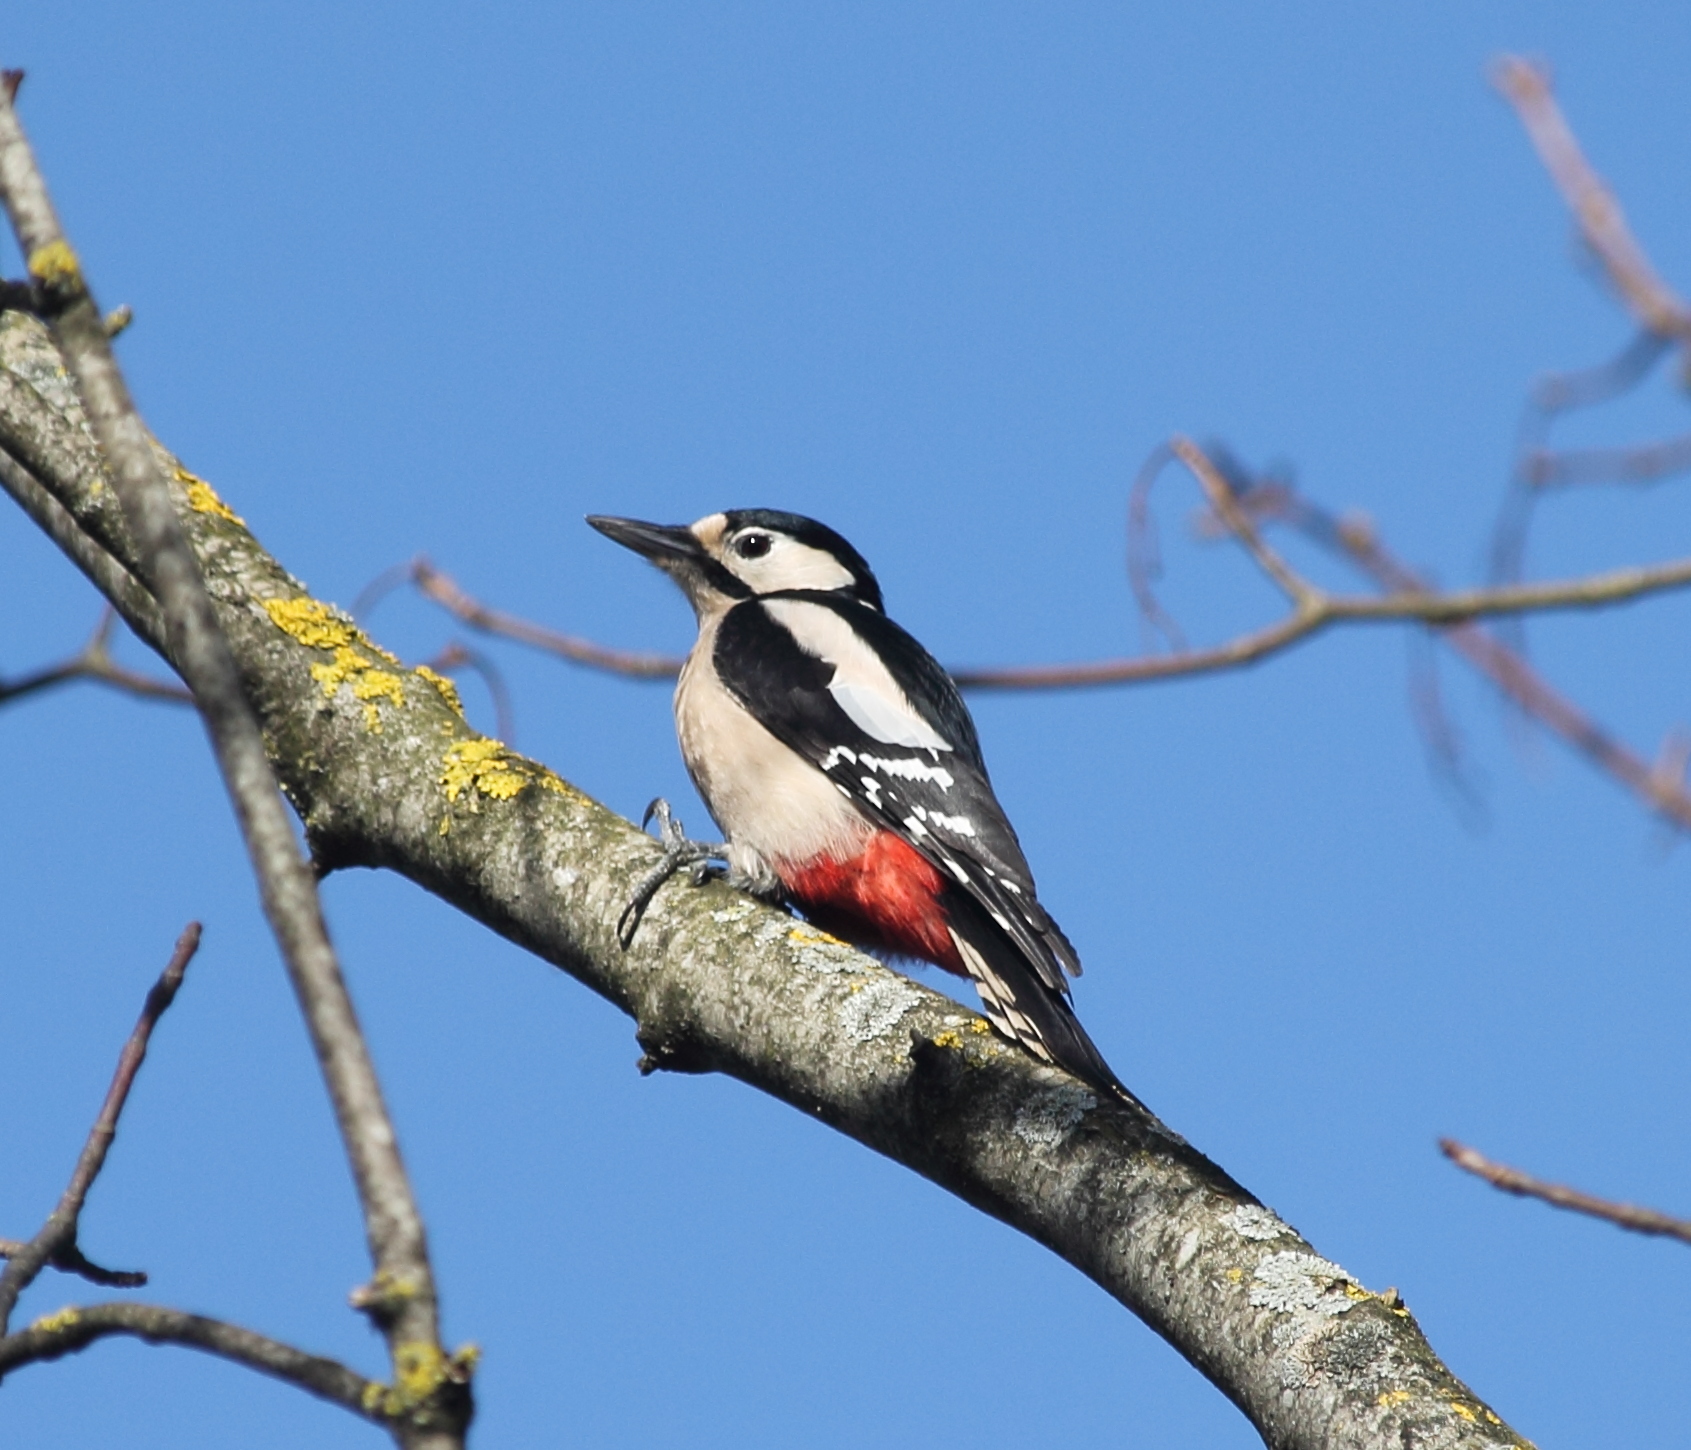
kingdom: Animalia
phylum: Chordata
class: Aves
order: Piciformes
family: Picidae
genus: Dendrocopos
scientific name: Dendrocopos major
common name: Great spotted woodpecker
